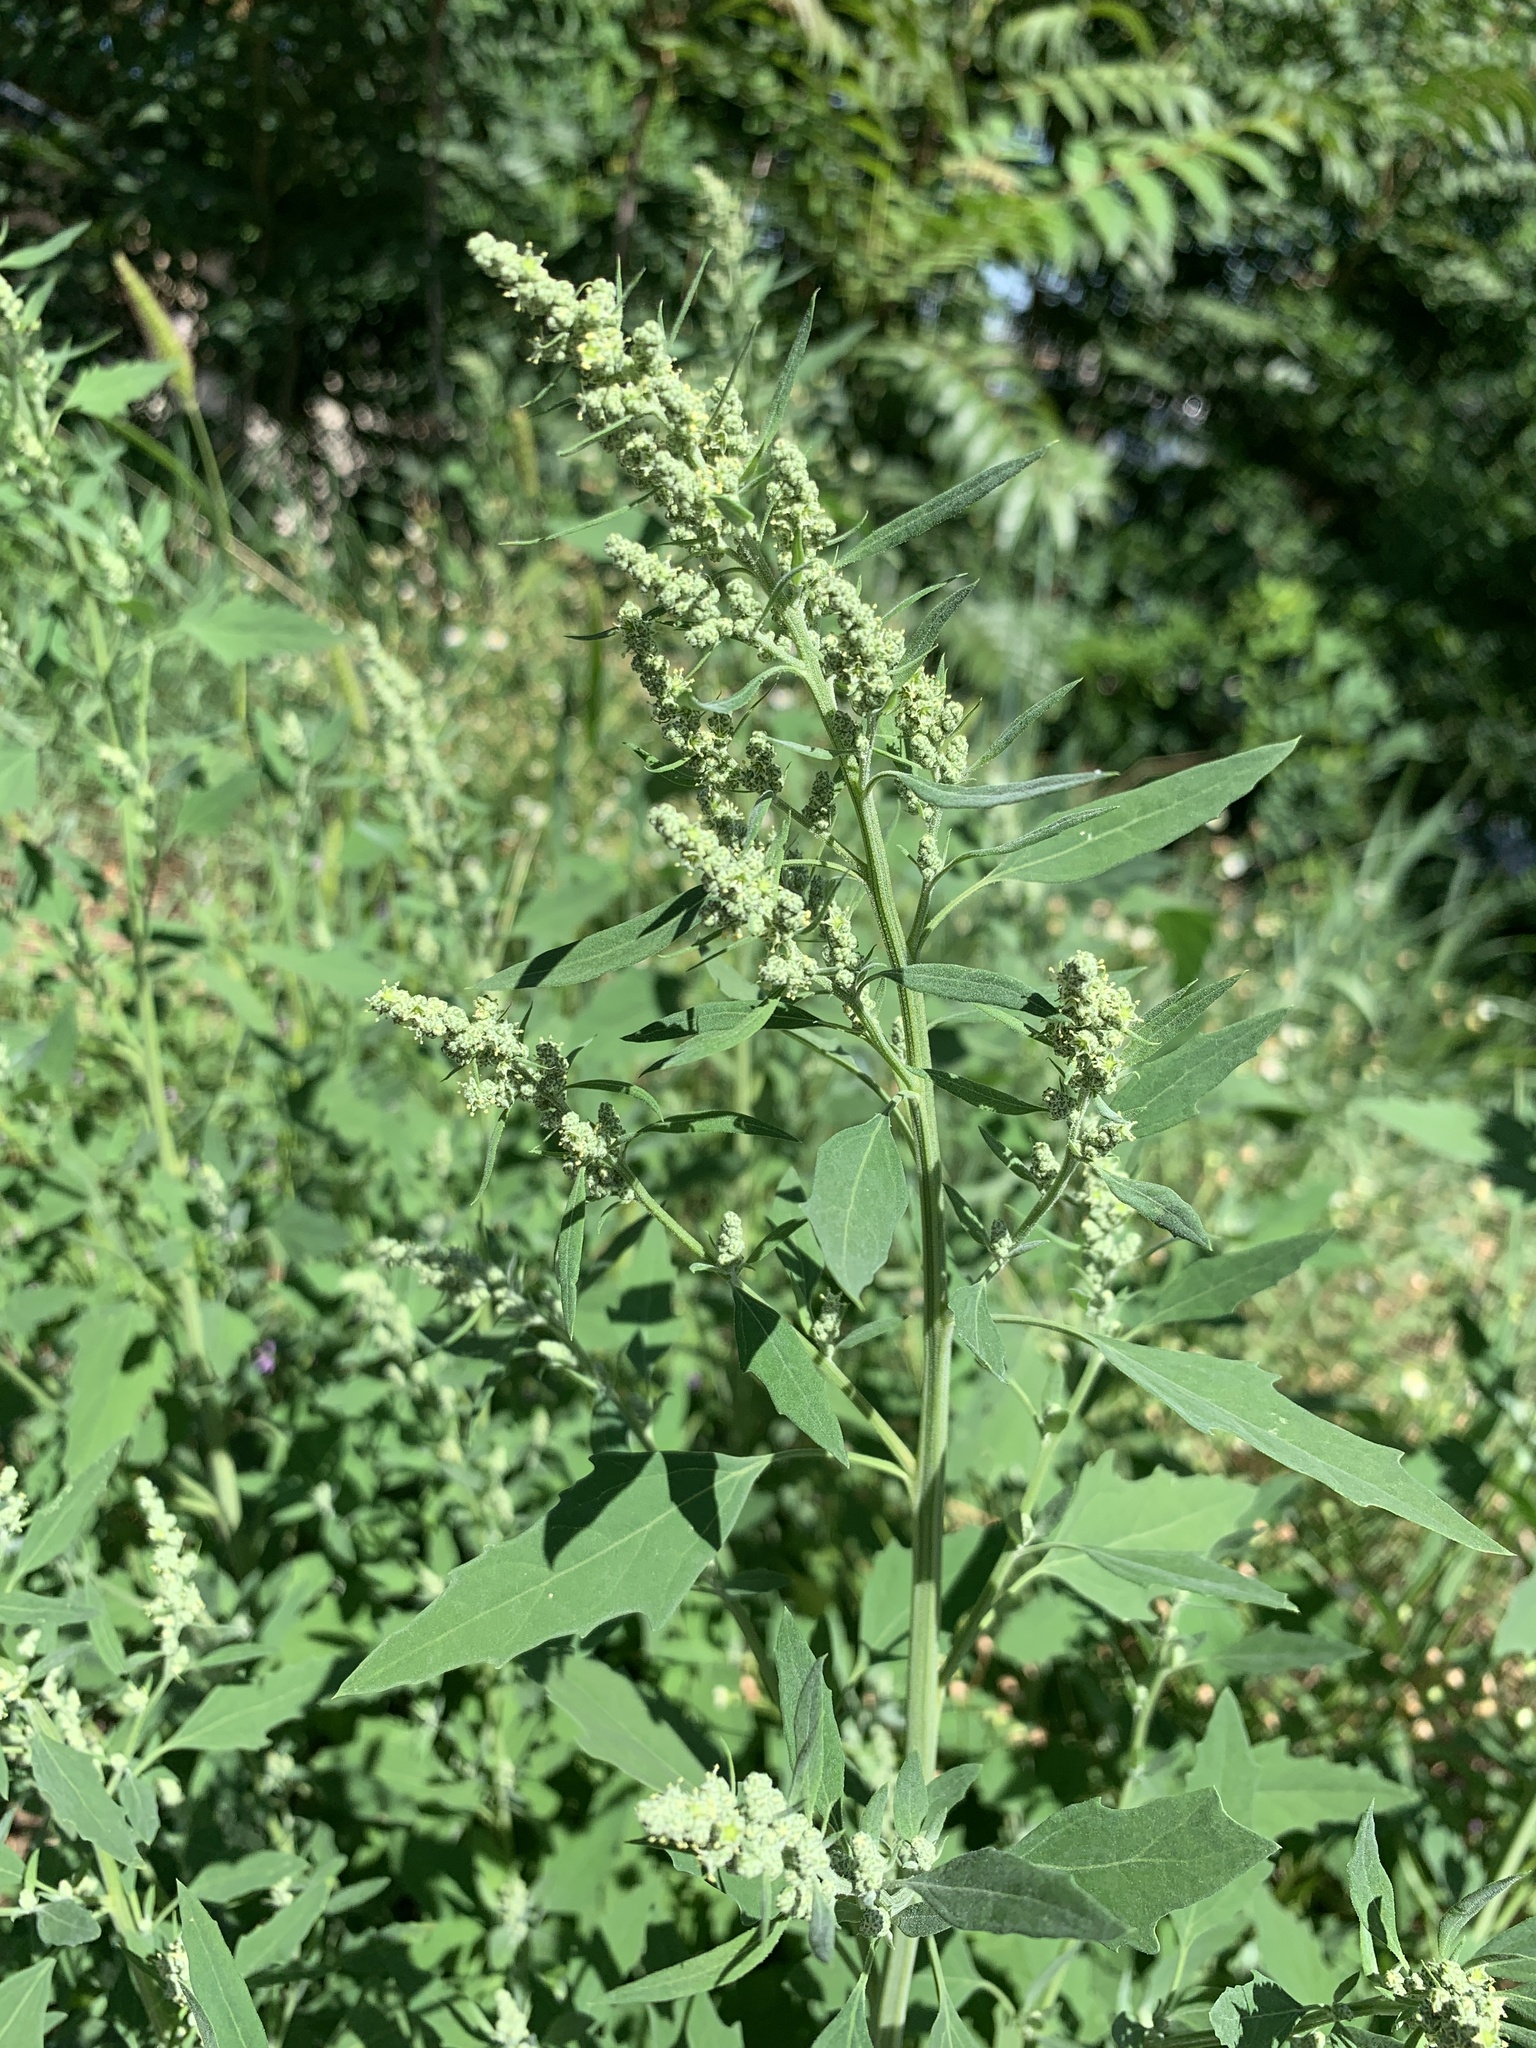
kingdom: Plantae
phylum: Tracheophyta
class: Magnoliopsida
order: Caryophyllales
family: Amaranthaceae
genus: Chenopodium
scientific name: Chenopodium album
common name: Fat-hen
